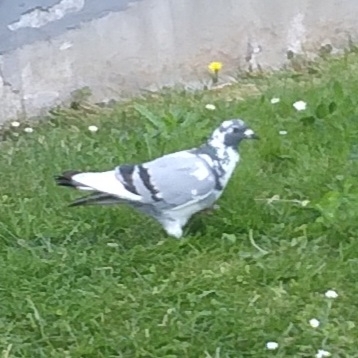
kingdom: Animalia
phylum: Chordata
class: Aves
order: Columbiformes
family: Columbidae
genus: Columba
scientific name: Columba livia
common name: Rock pigeon
